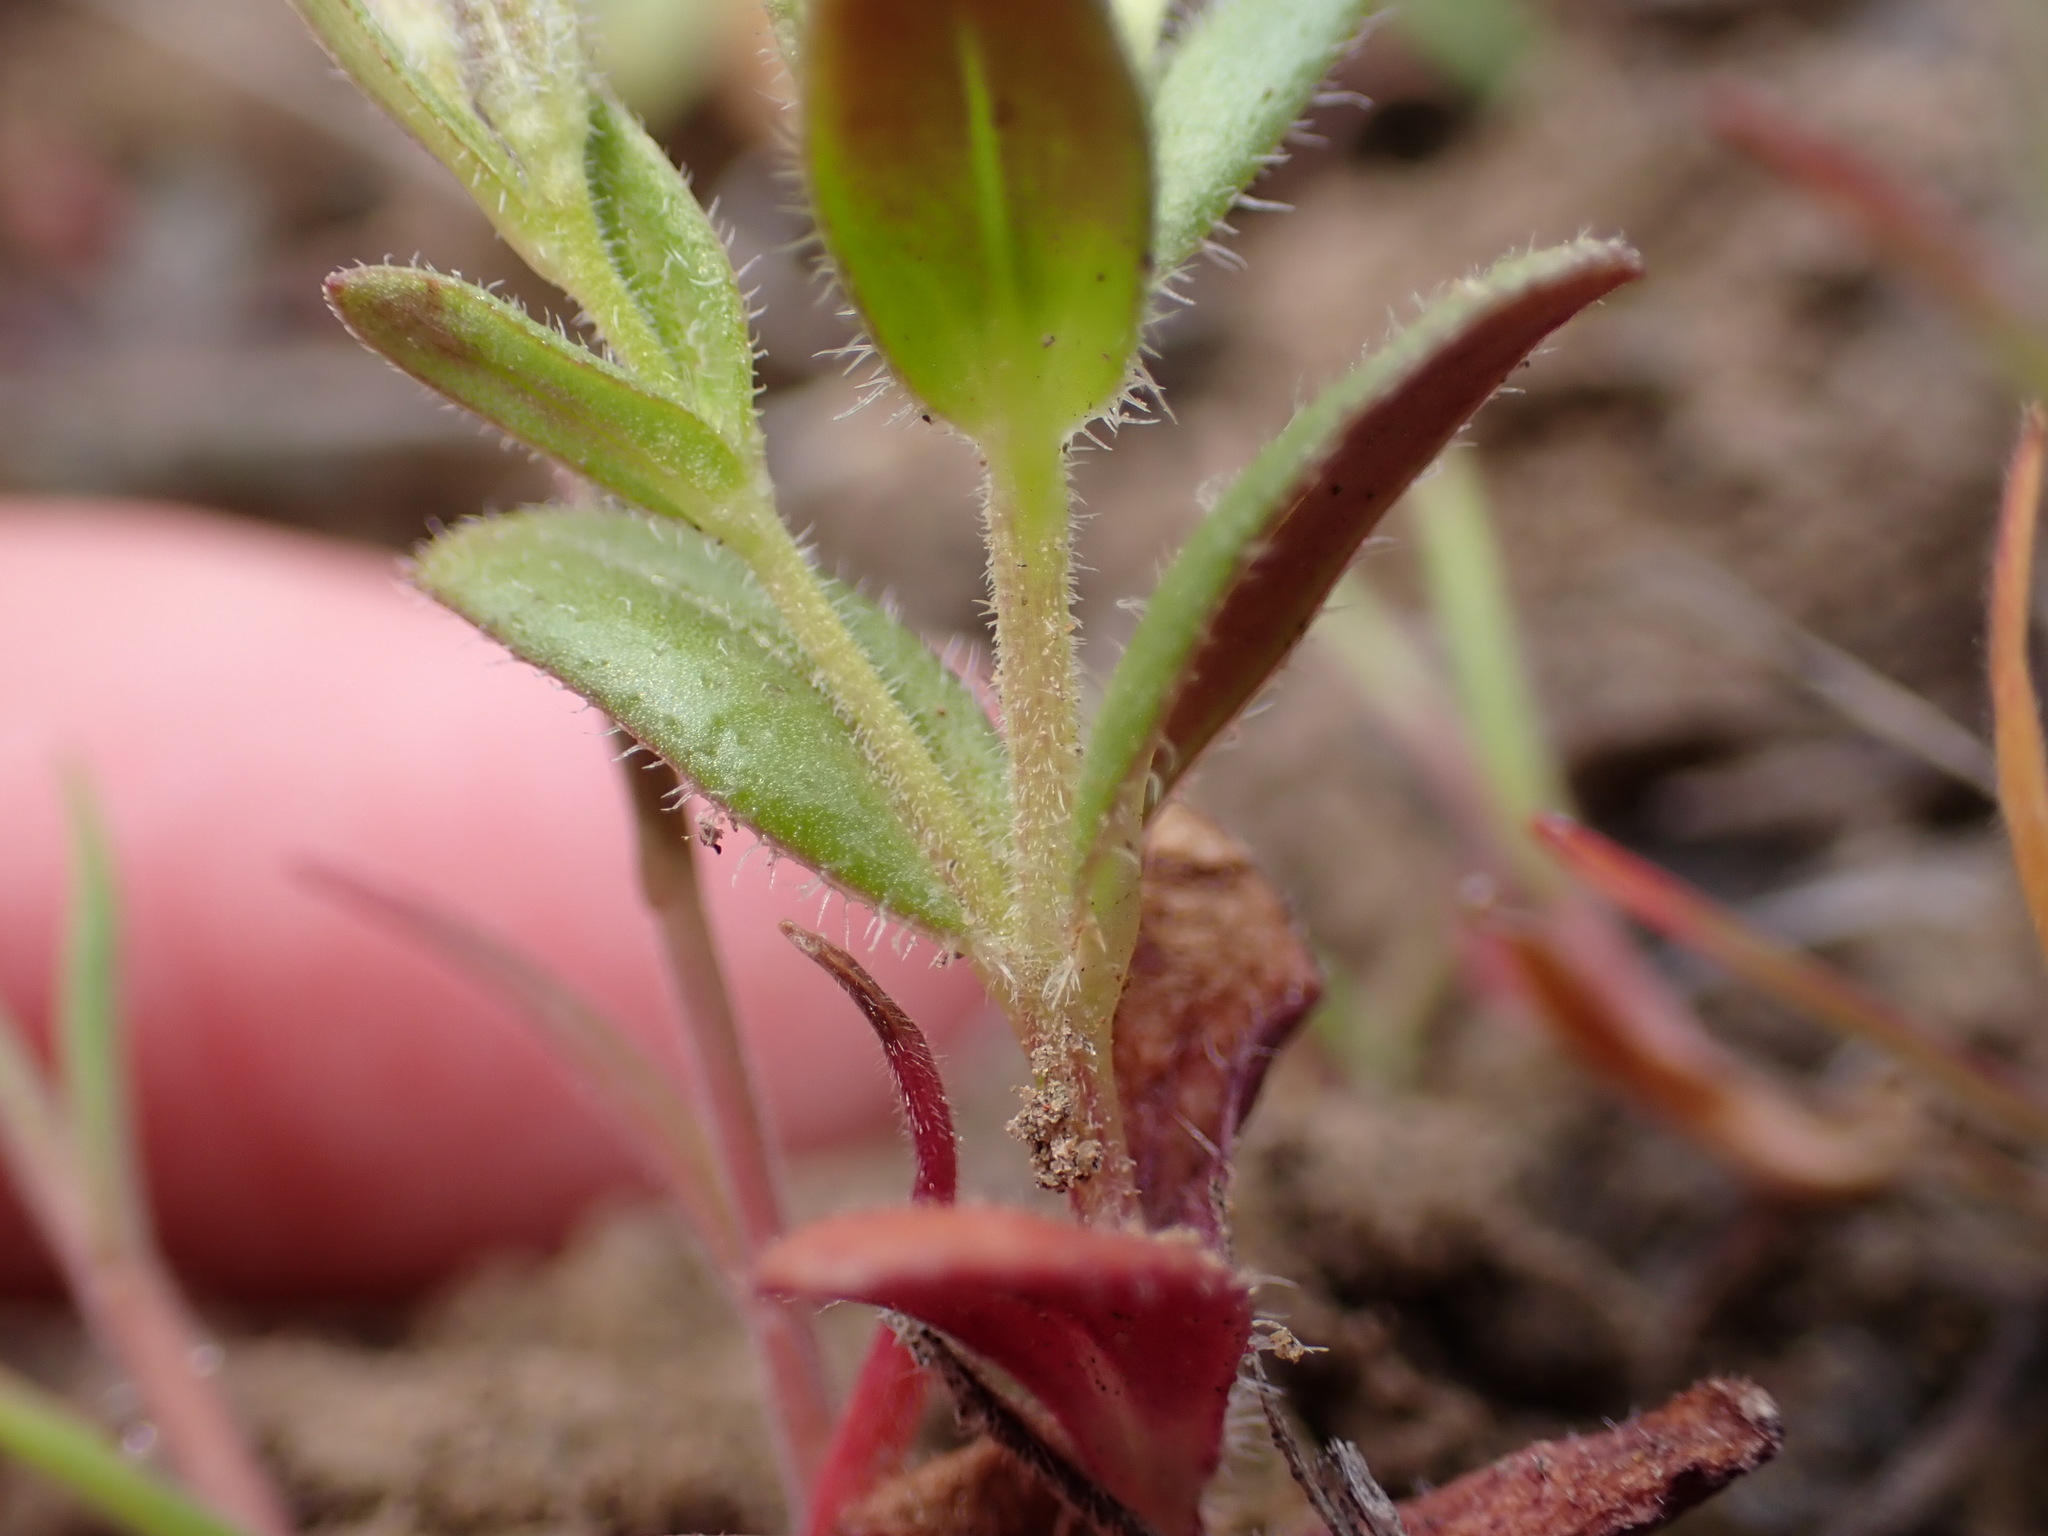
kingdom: Plantae
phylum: Tracheophyta
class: Magnoliopsida
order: Ericales
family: Polemoniaceae
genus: Phlox
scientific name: Phlox gracilis
